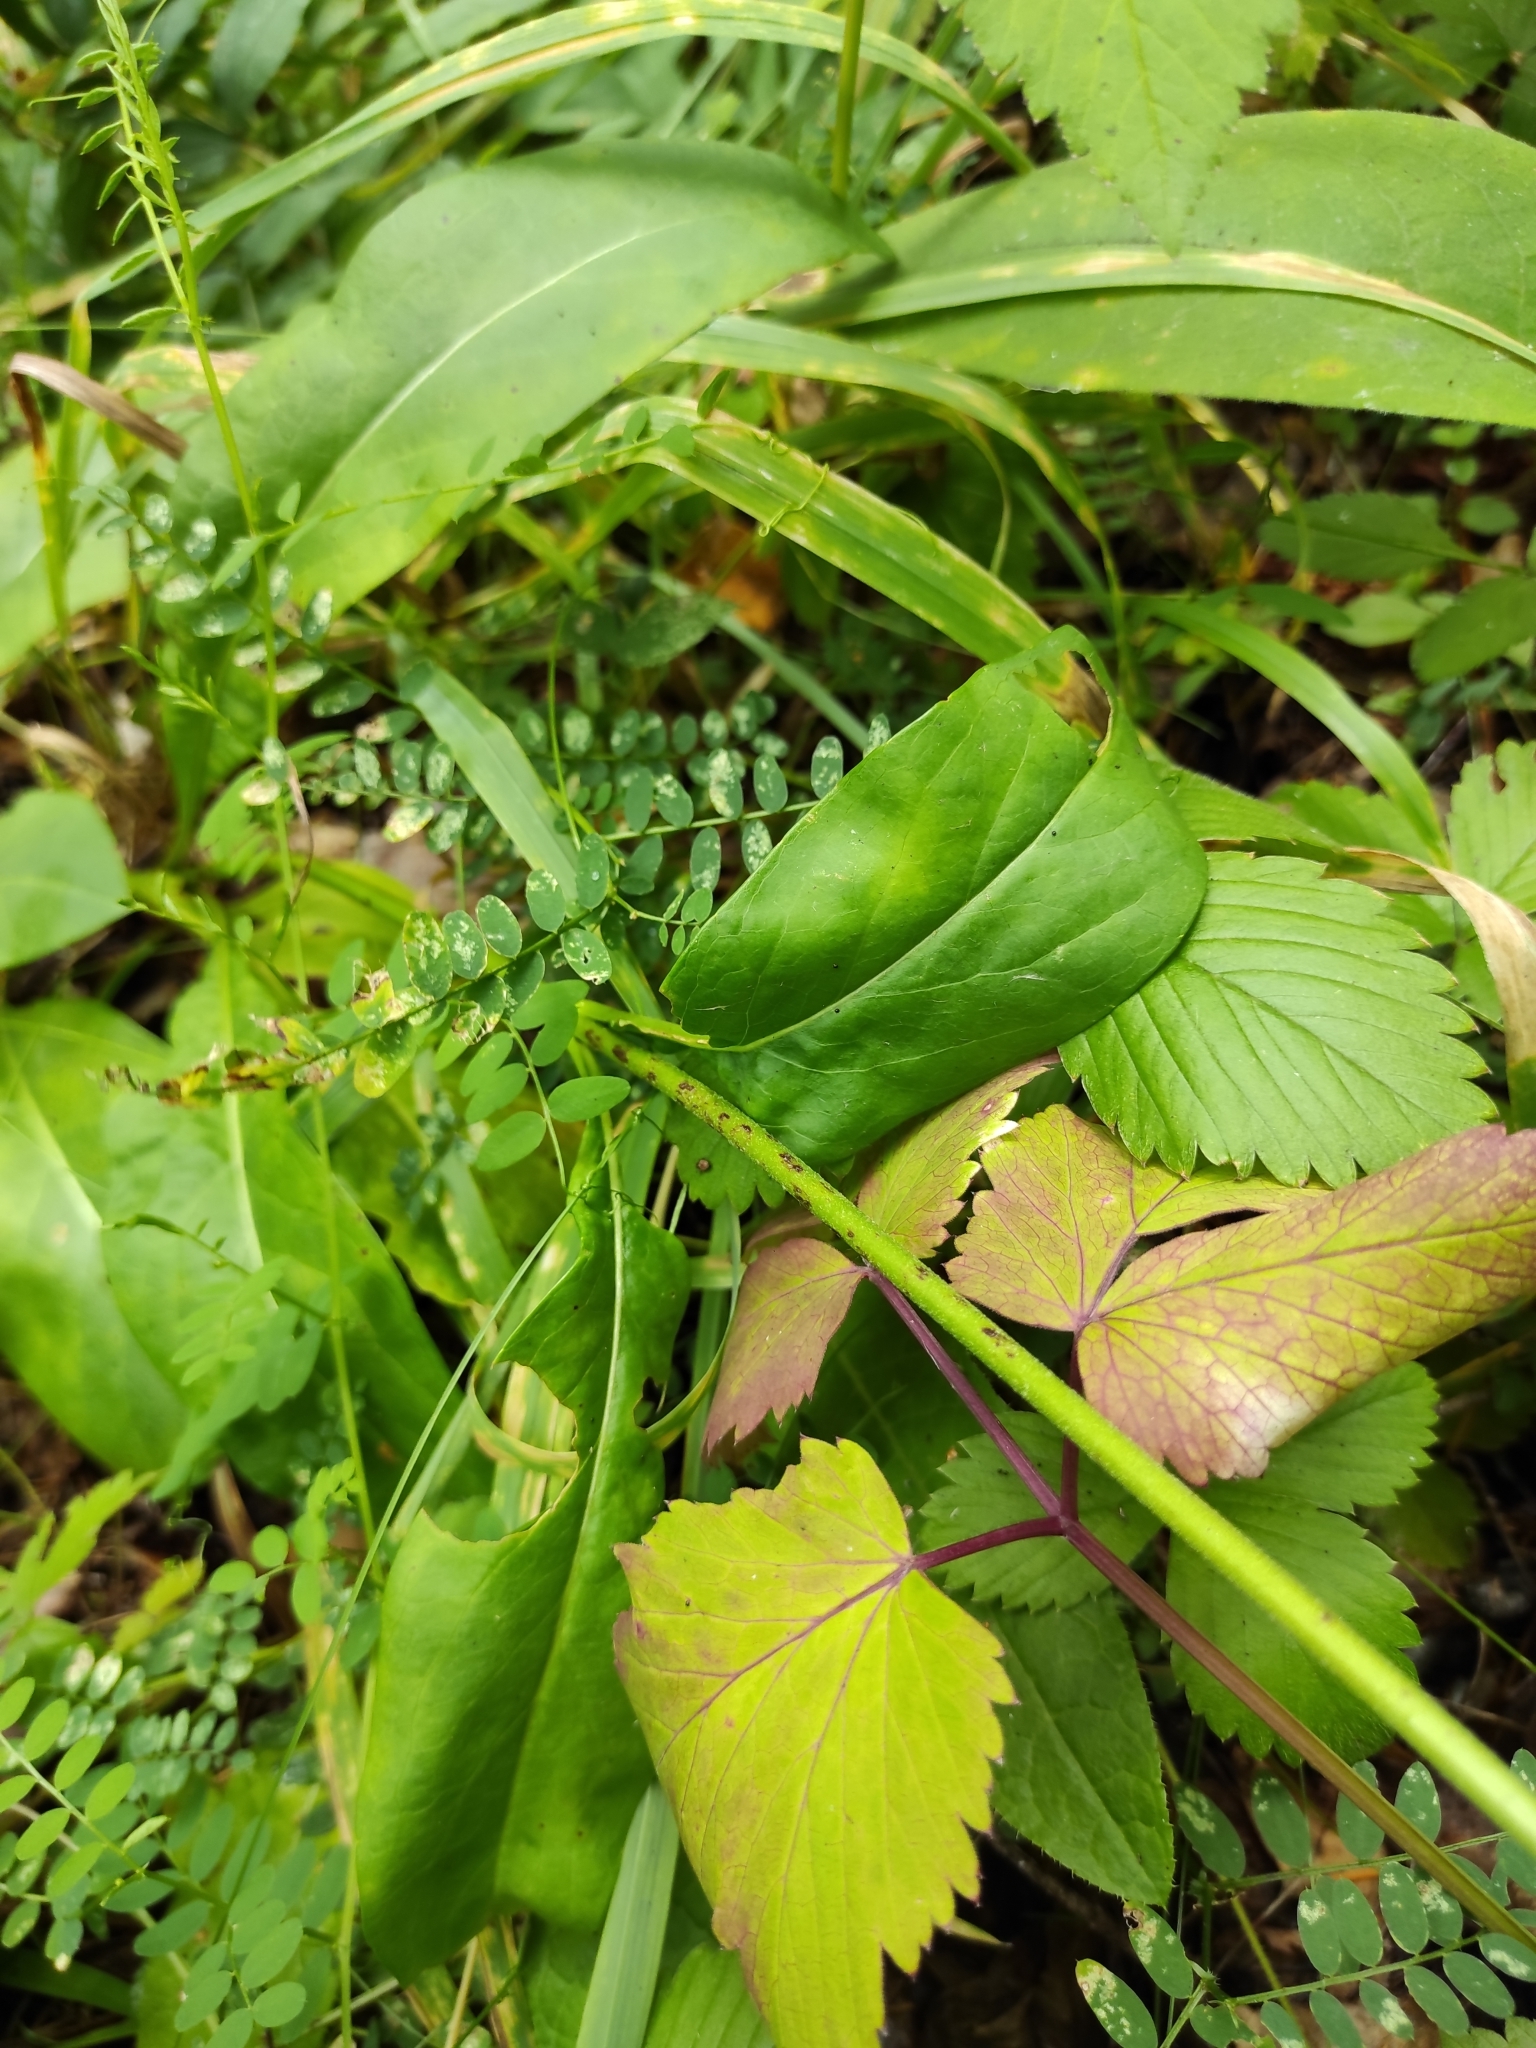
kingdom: Plantae
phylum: Tracheophyta
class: Magnoliopsida
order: Dipsacales
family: Caprifoliaceae
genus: Succisa
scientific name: Succisa pratensis
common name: Devil's-bit
